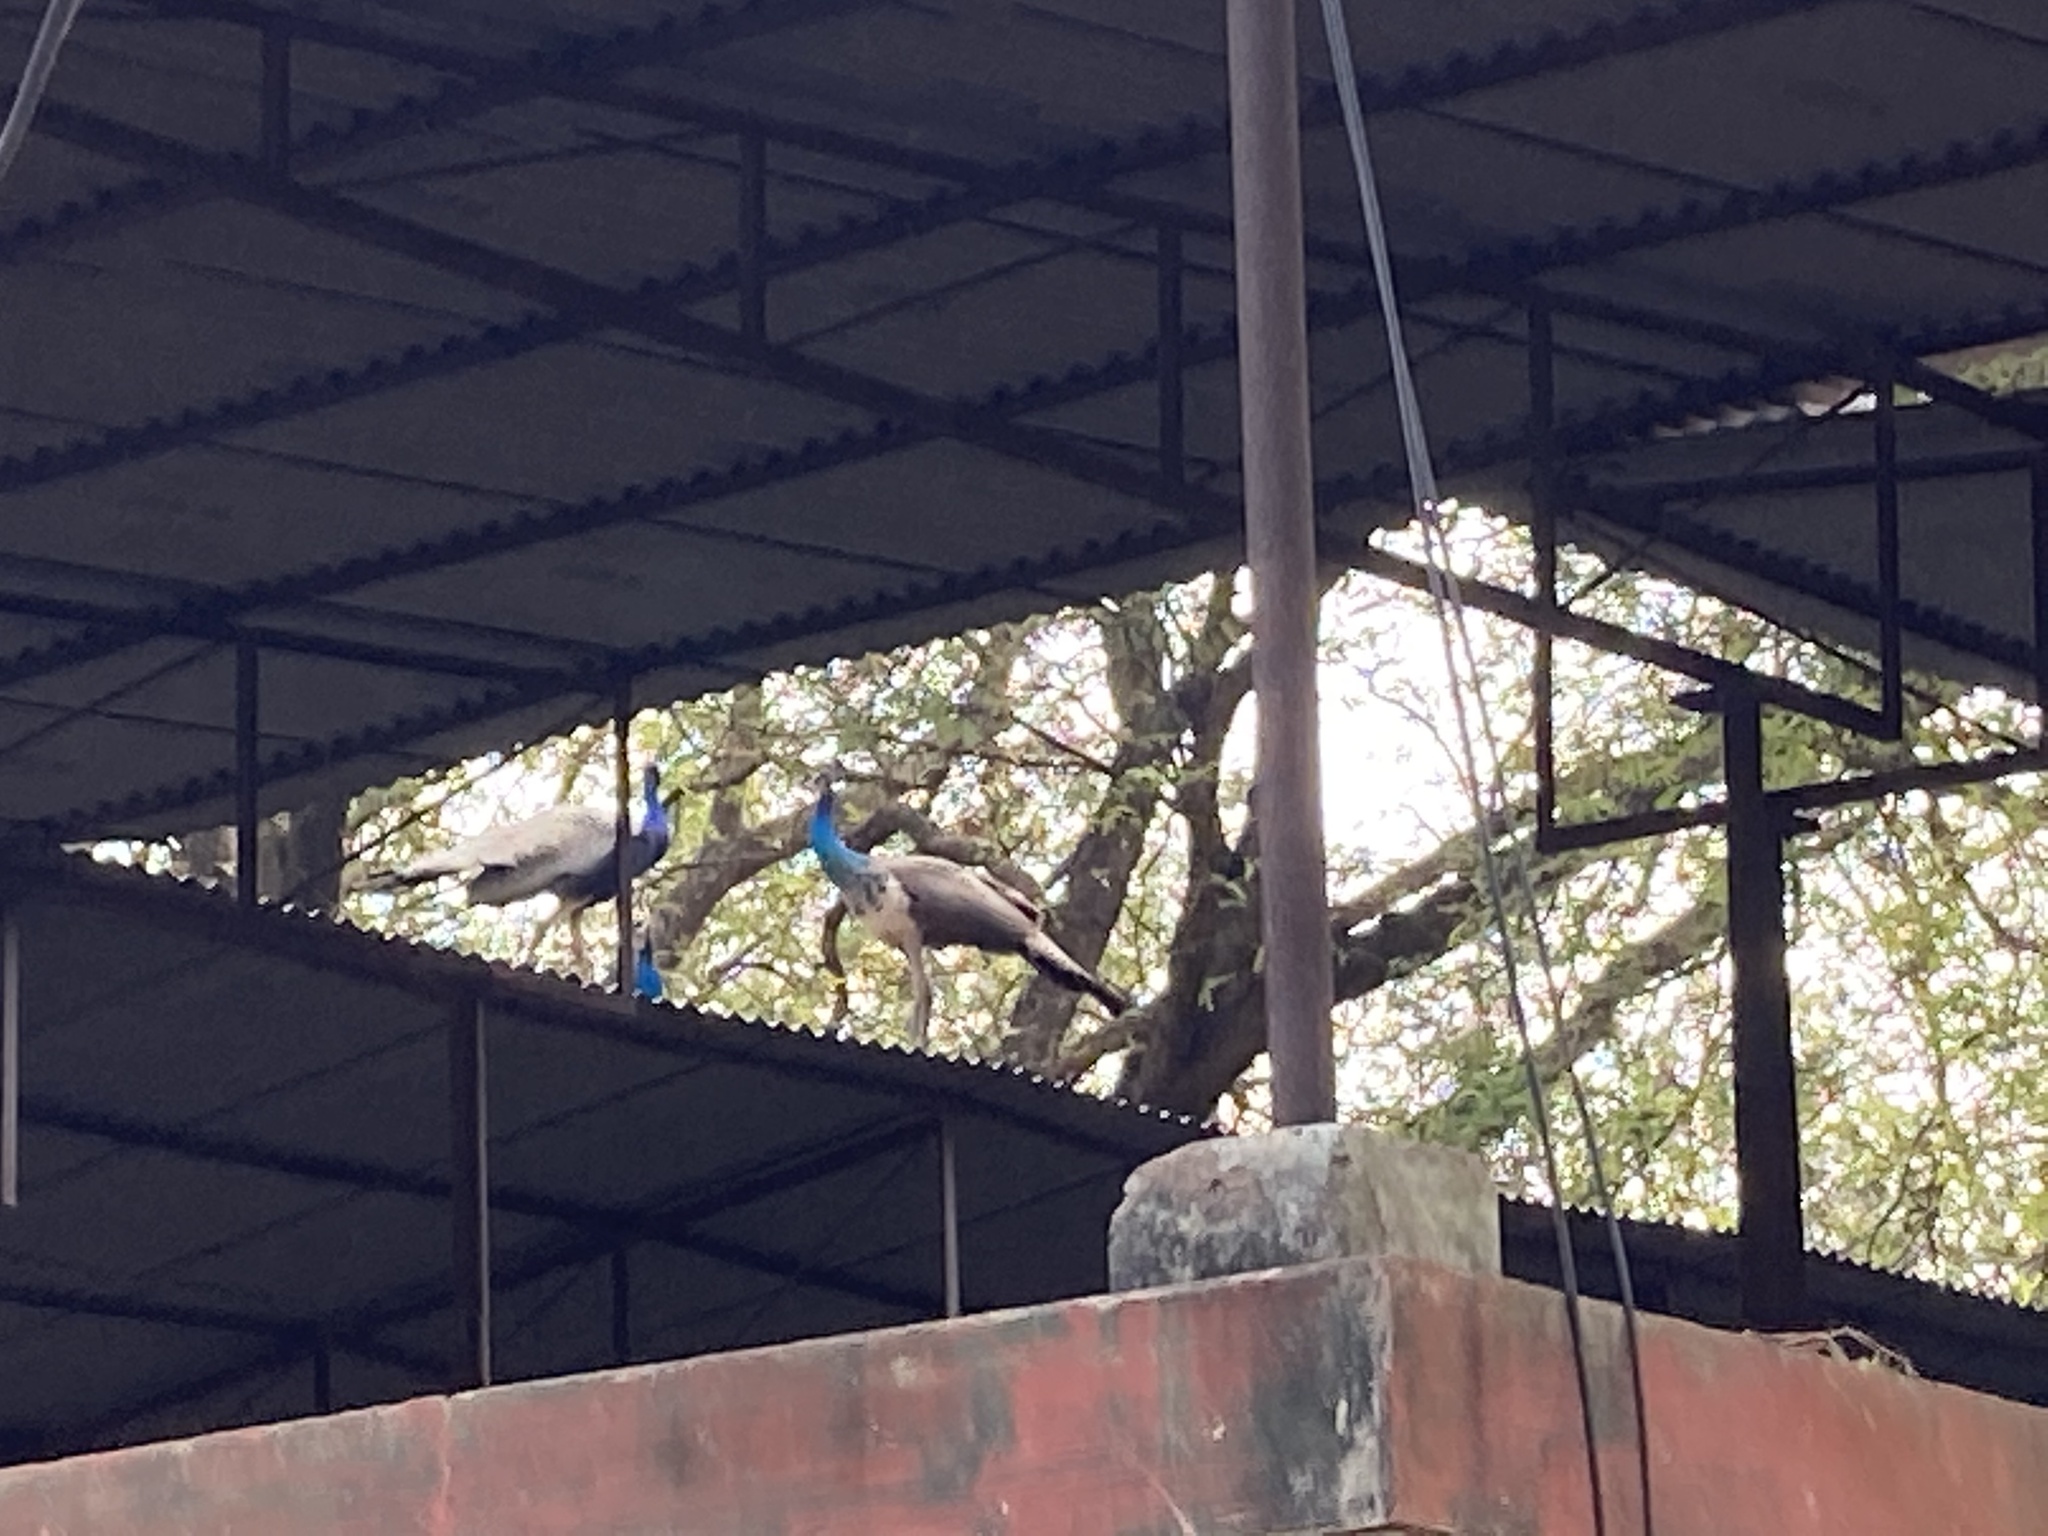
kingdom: Animalia
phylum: Chordata
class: Aves
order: Galliformes
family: Phasianidae
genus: Pavo
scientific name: Pavo cristatus
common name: Indian peafowl
